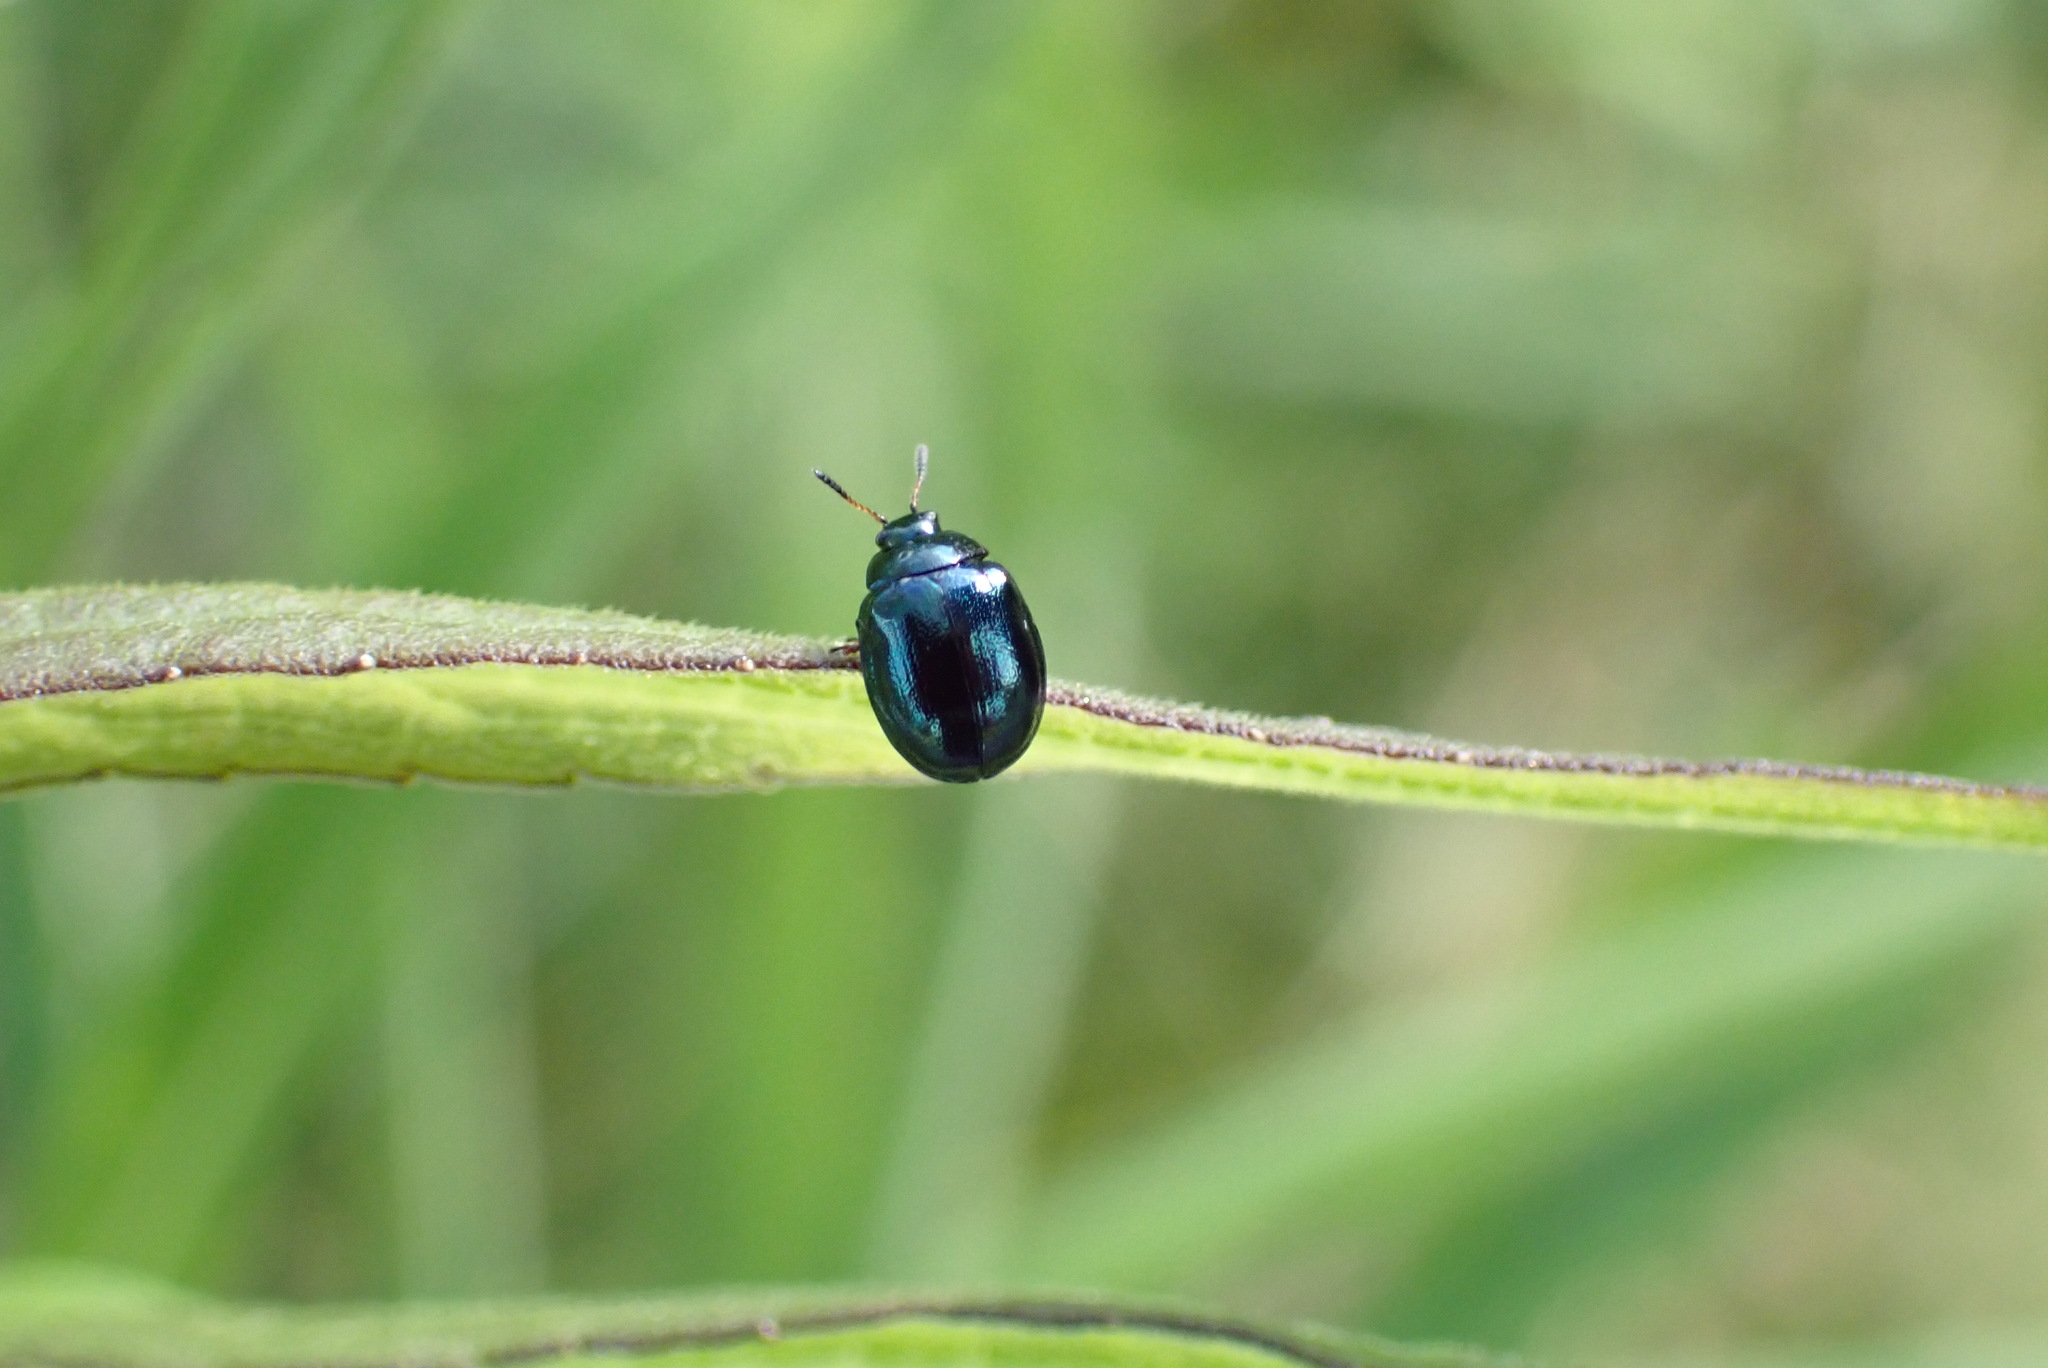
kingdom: Animalia
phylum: Arthropoda
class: Insecta
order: Coleoptera
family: Chrysomelidae
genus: Plagiodera
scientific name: Plagiodera versicolora
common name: Imported willow leaf beetle
